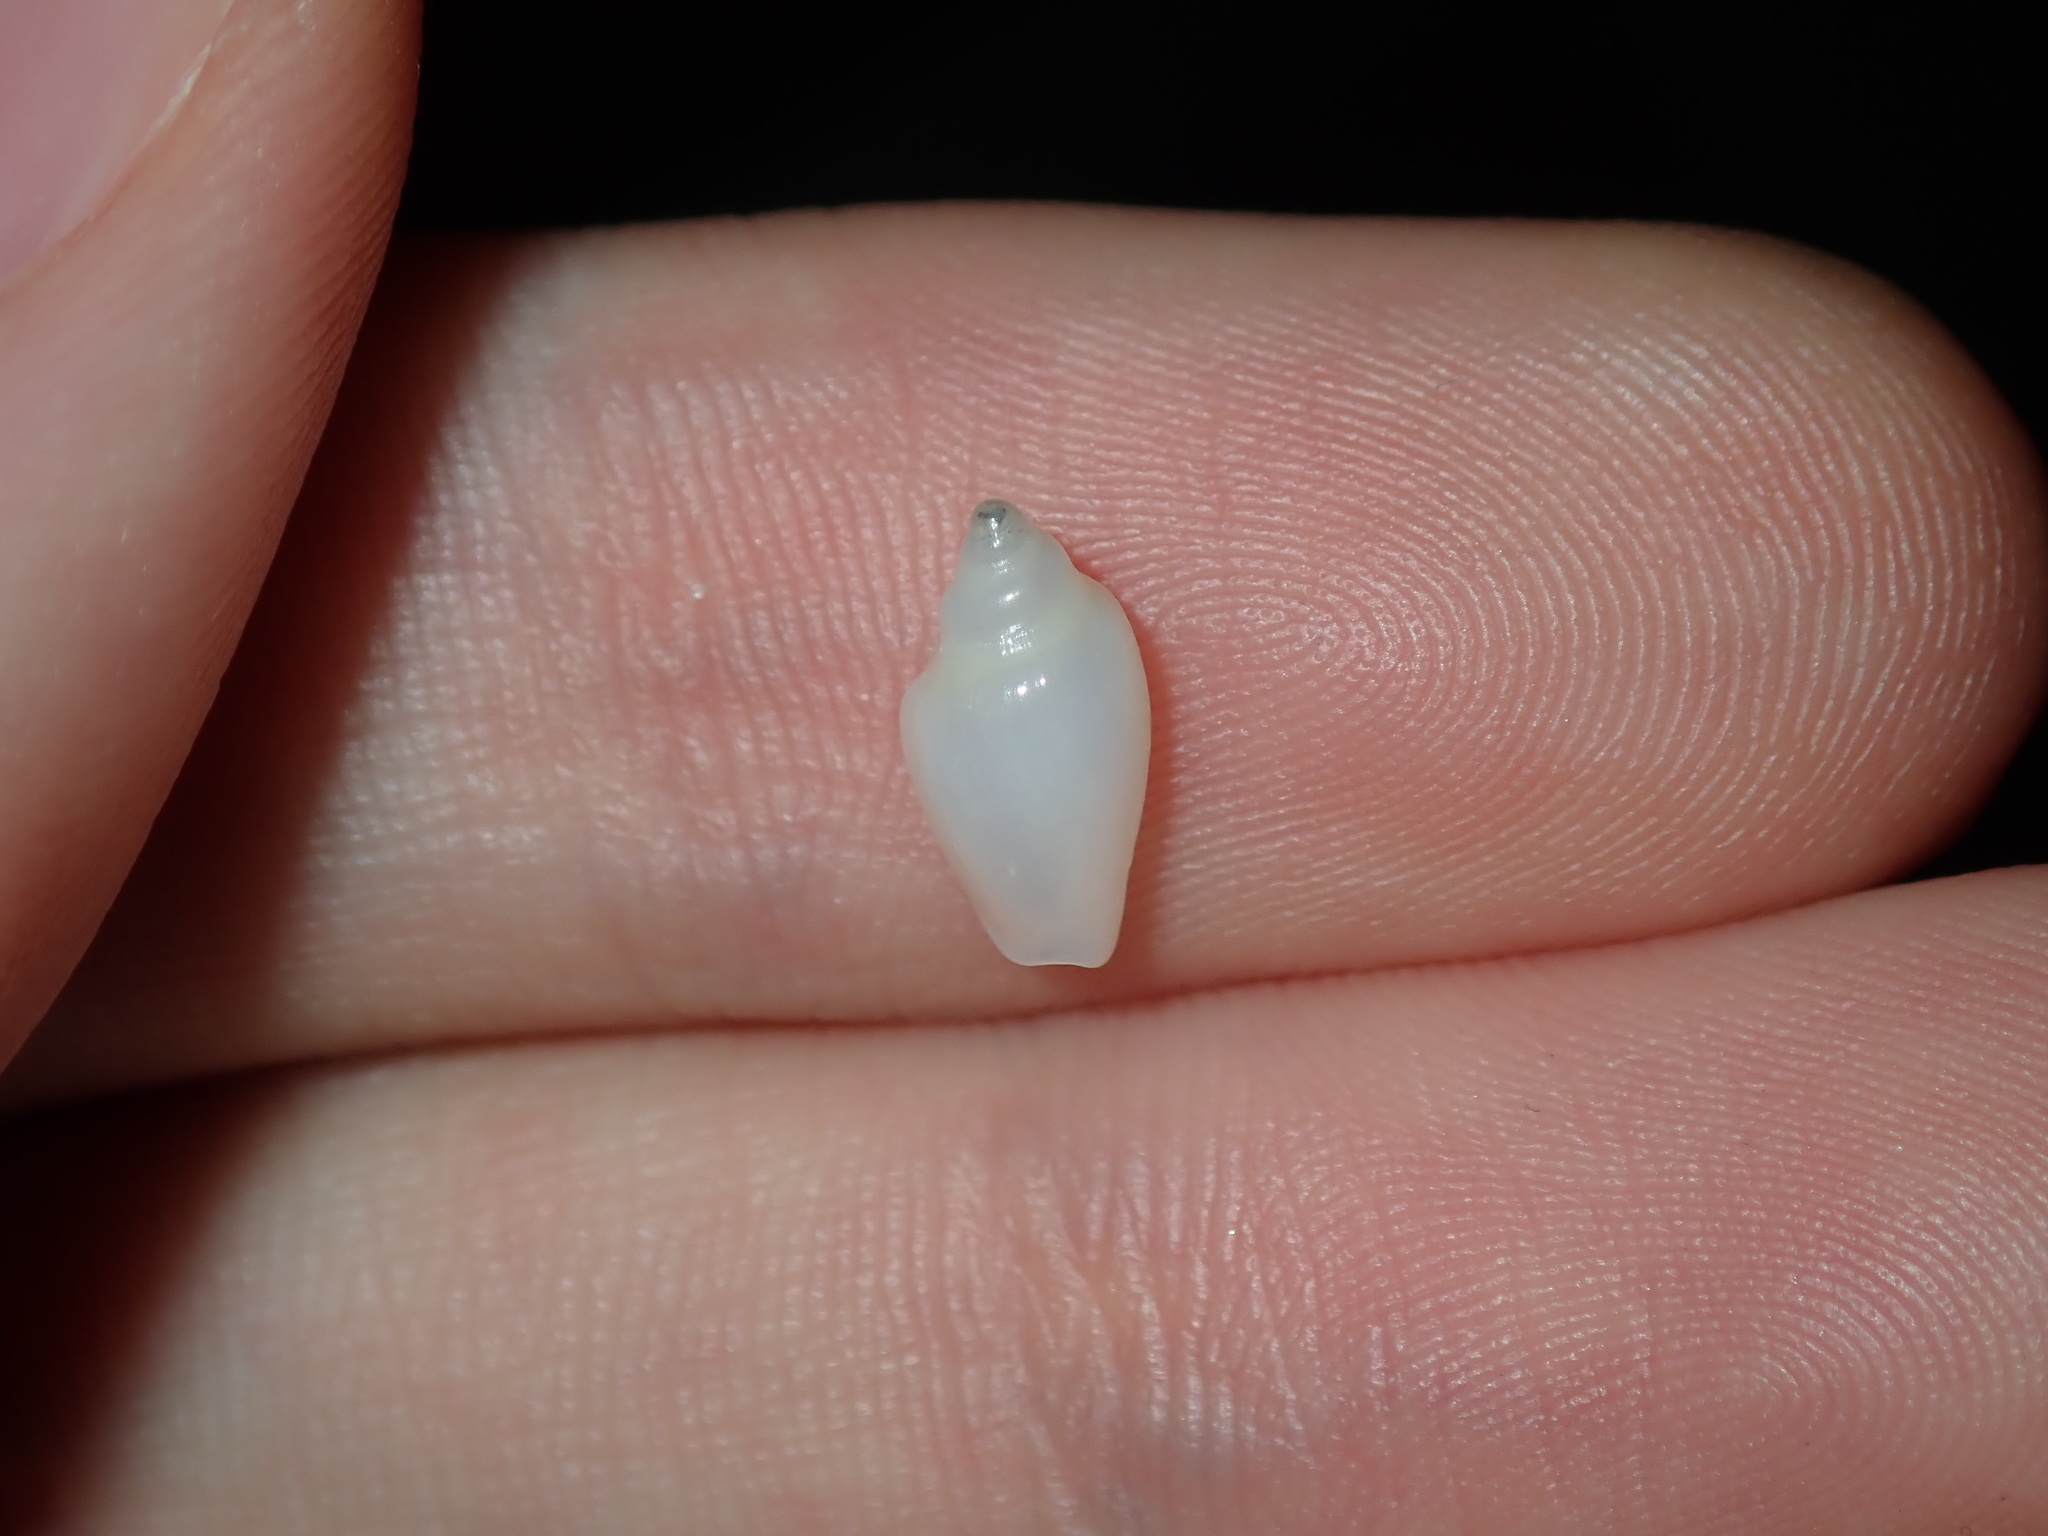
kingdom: Animalia
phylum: Mollusca
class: Gastropoda
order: Neogastropoda
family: Marginellidae
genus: Austroginella
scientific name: Austroginella translucida
